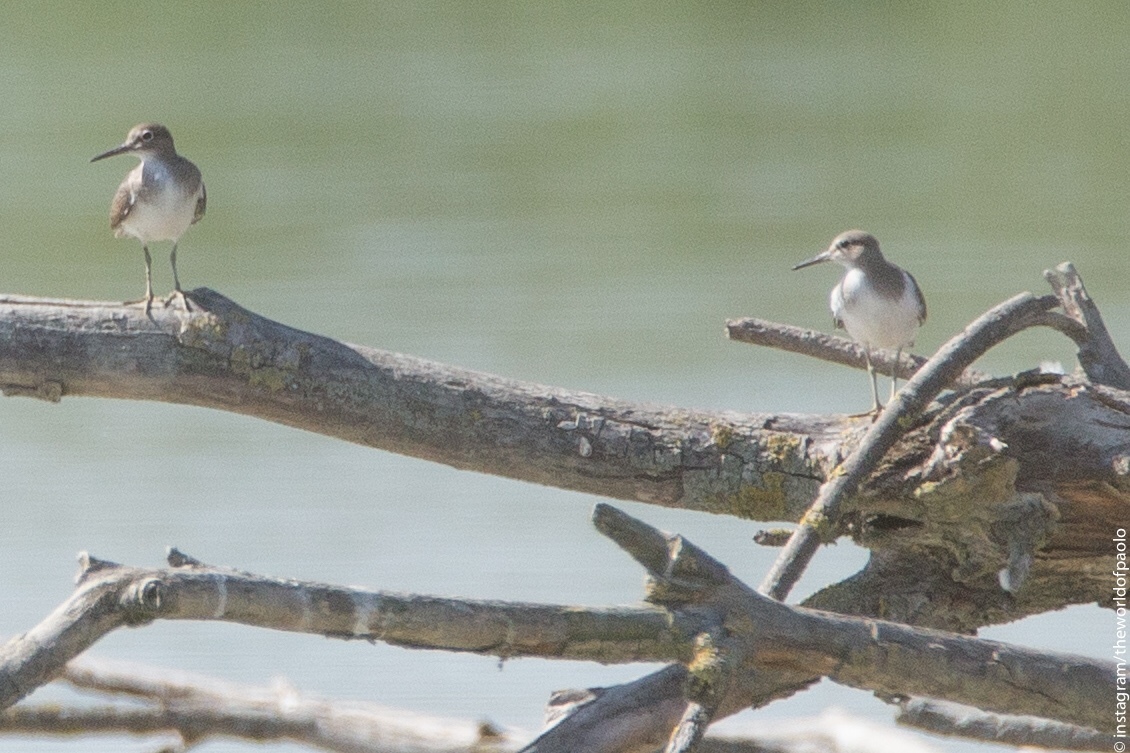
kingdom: Animalia
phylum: Chordata
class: Aves
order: Charadriiformes
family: Scolopacidae
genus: Actitis
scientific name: Actitis hypoleucos
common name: Common sandpiper
